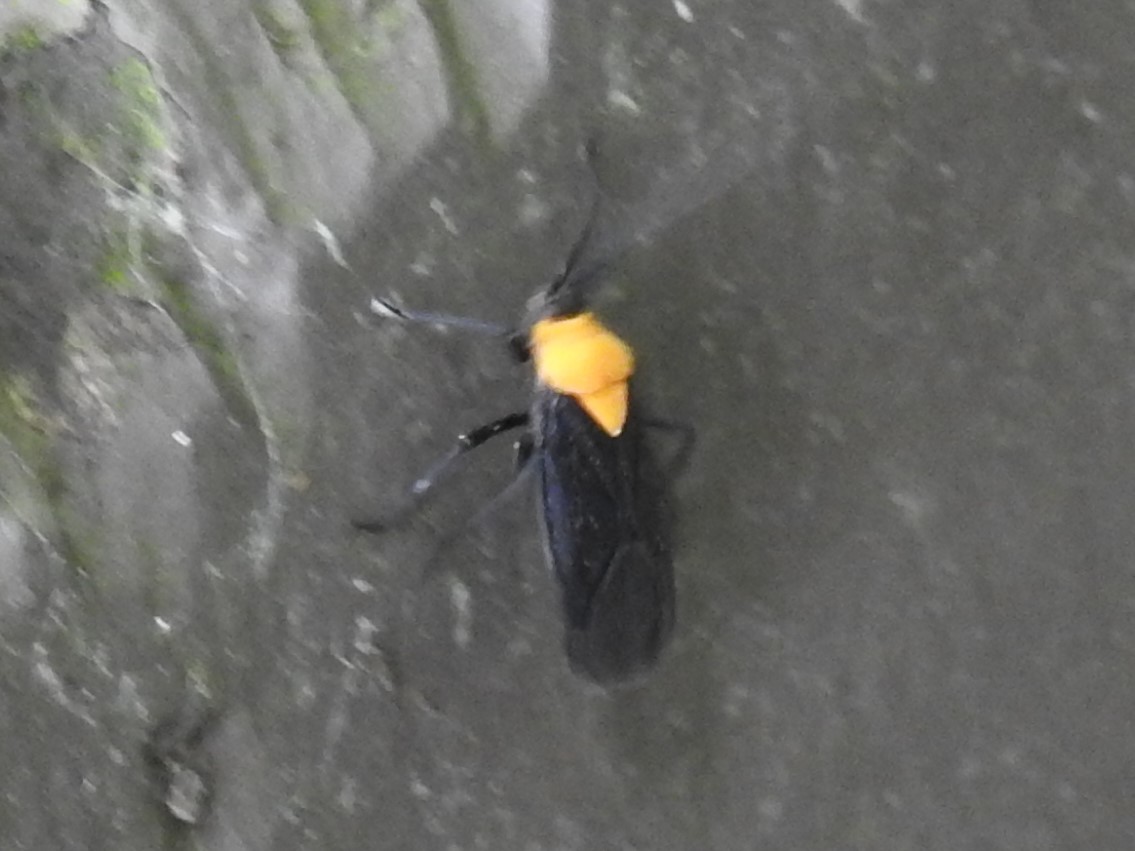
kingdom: Animalia
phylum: Arthropoda
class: Insecta
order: Hemiptera
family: Miridae
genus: Prepops
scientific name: Prepops insitivus
